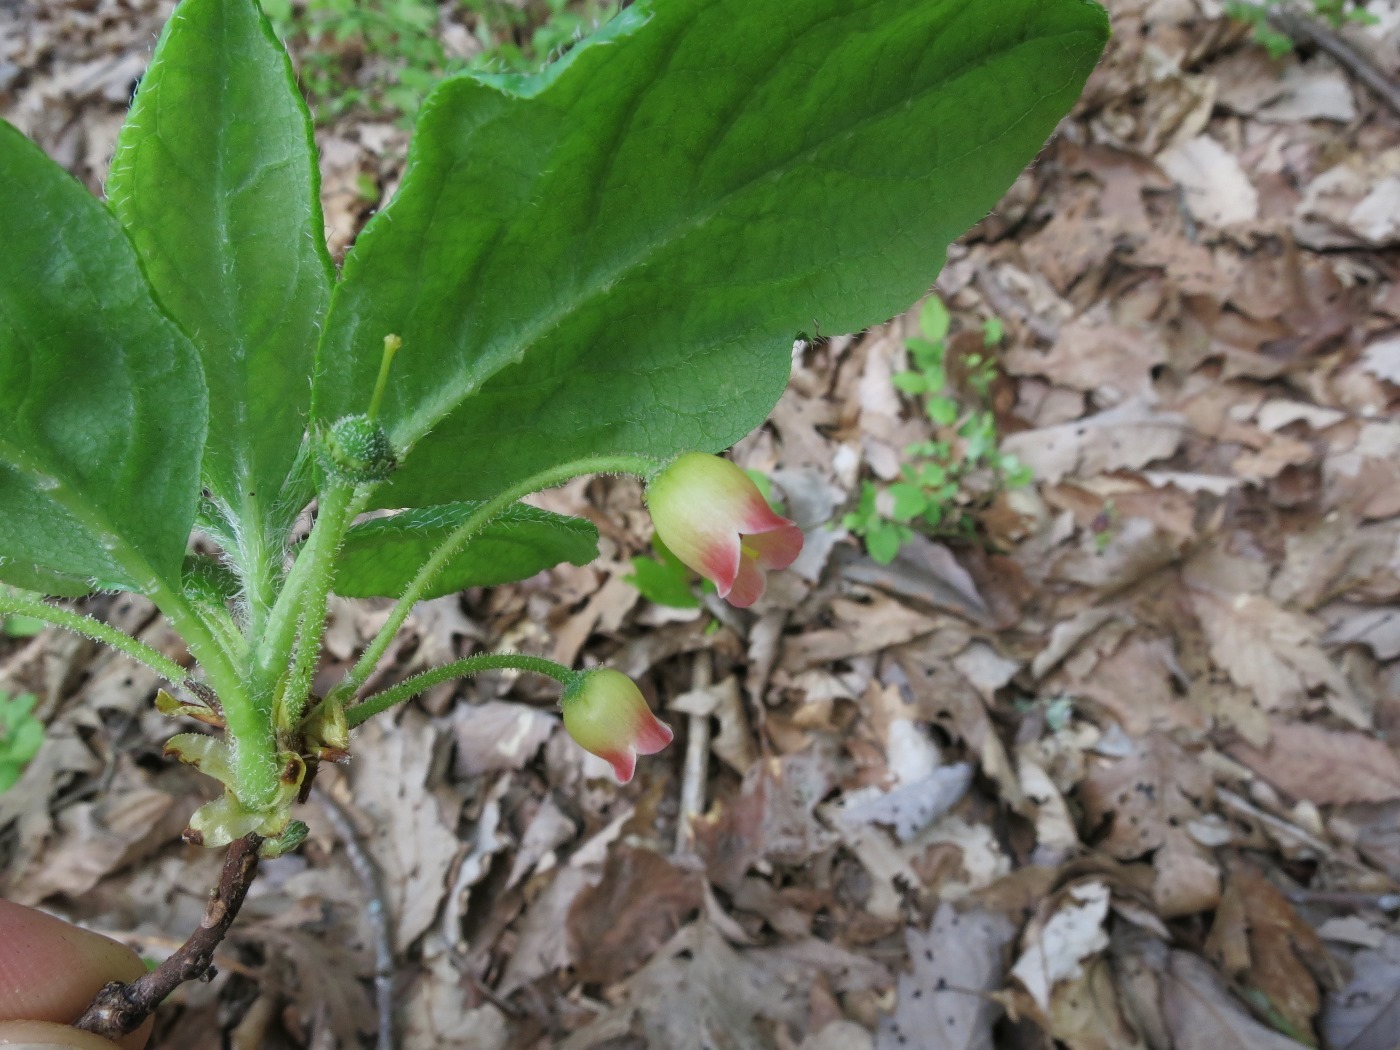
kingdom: Plantae
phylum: Tracheophyta
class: Magnoliopsida
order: Ericales
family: Ericaceae
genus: Rhododendron
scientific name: Rhododendron pilosum
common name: Hairy minniebush
